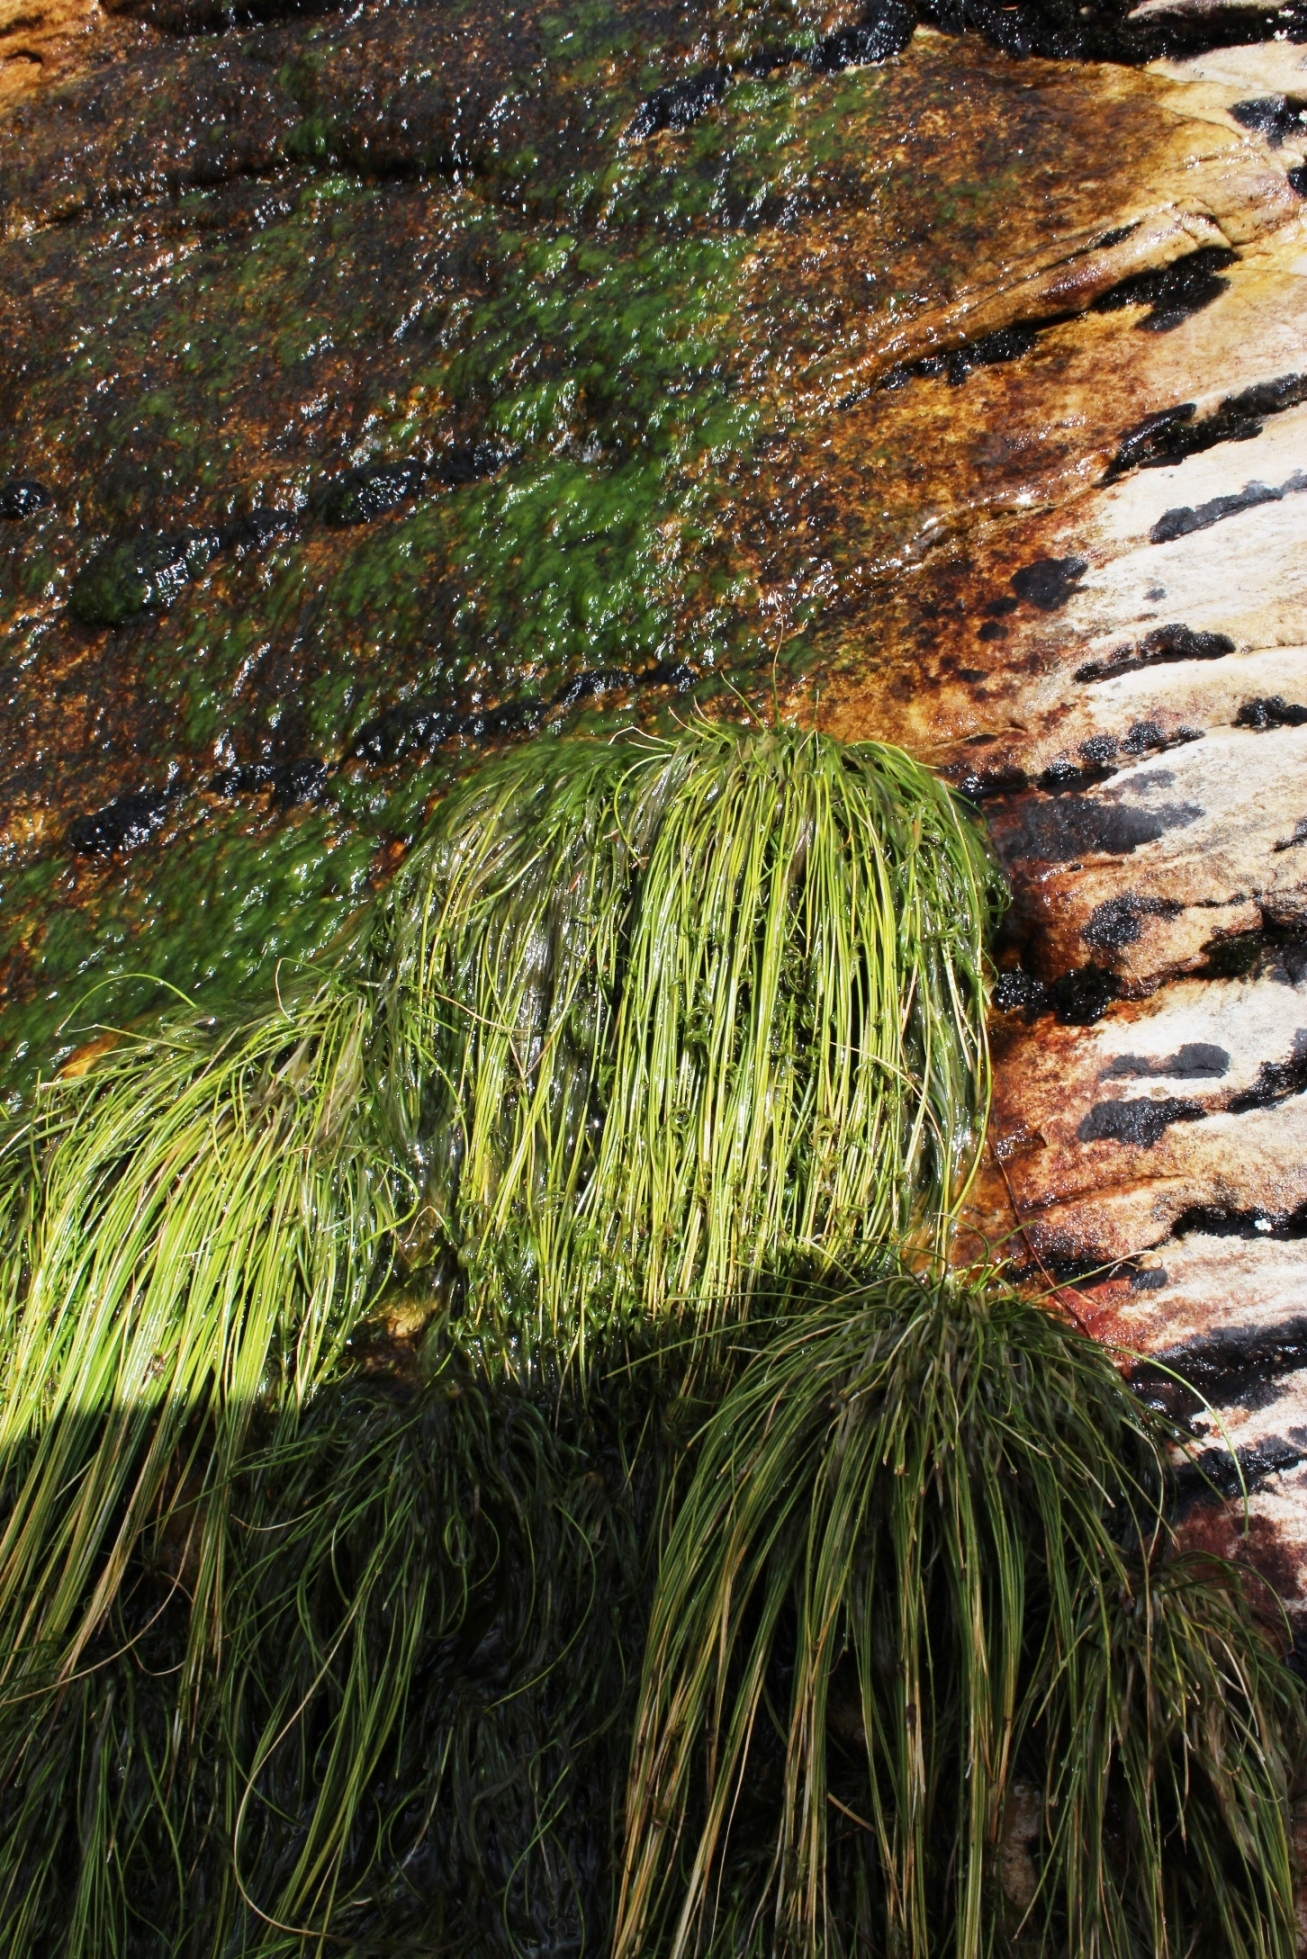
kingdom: Plantae
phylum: Tracheophyta
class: Liliopsida
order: Poales
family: Cyperaceae
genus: Isolepis
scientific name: Isolepis digitata
